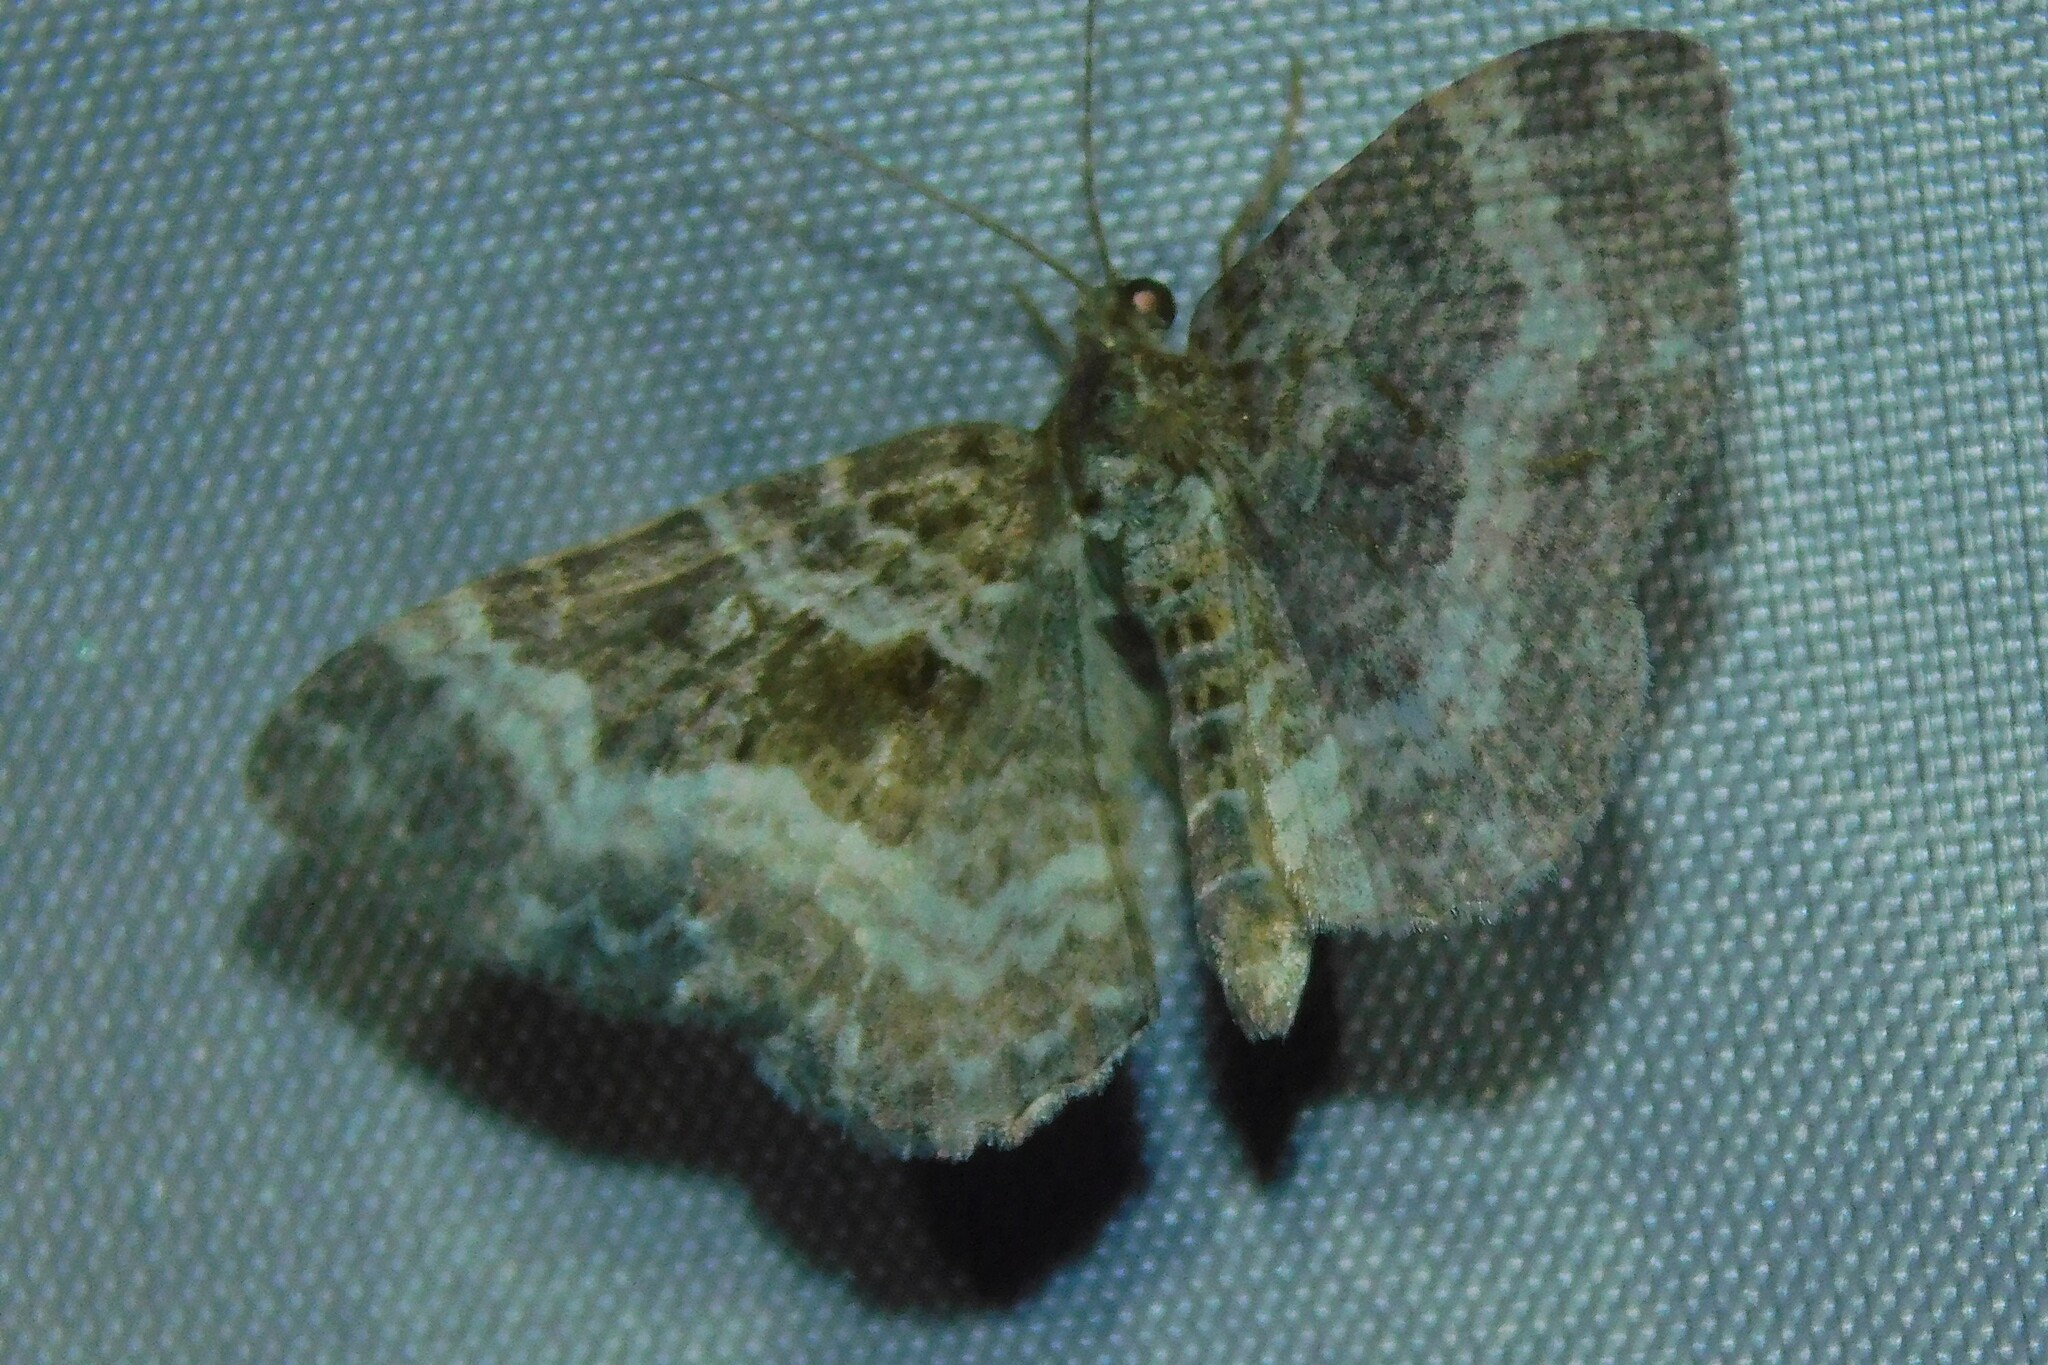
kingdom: Animalia
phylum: Arthropoda
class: Insecta
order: Lepidoptera
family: Geometridae
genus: Epirrhoe
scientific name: Epirrhoe alternata
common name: Common carpet
